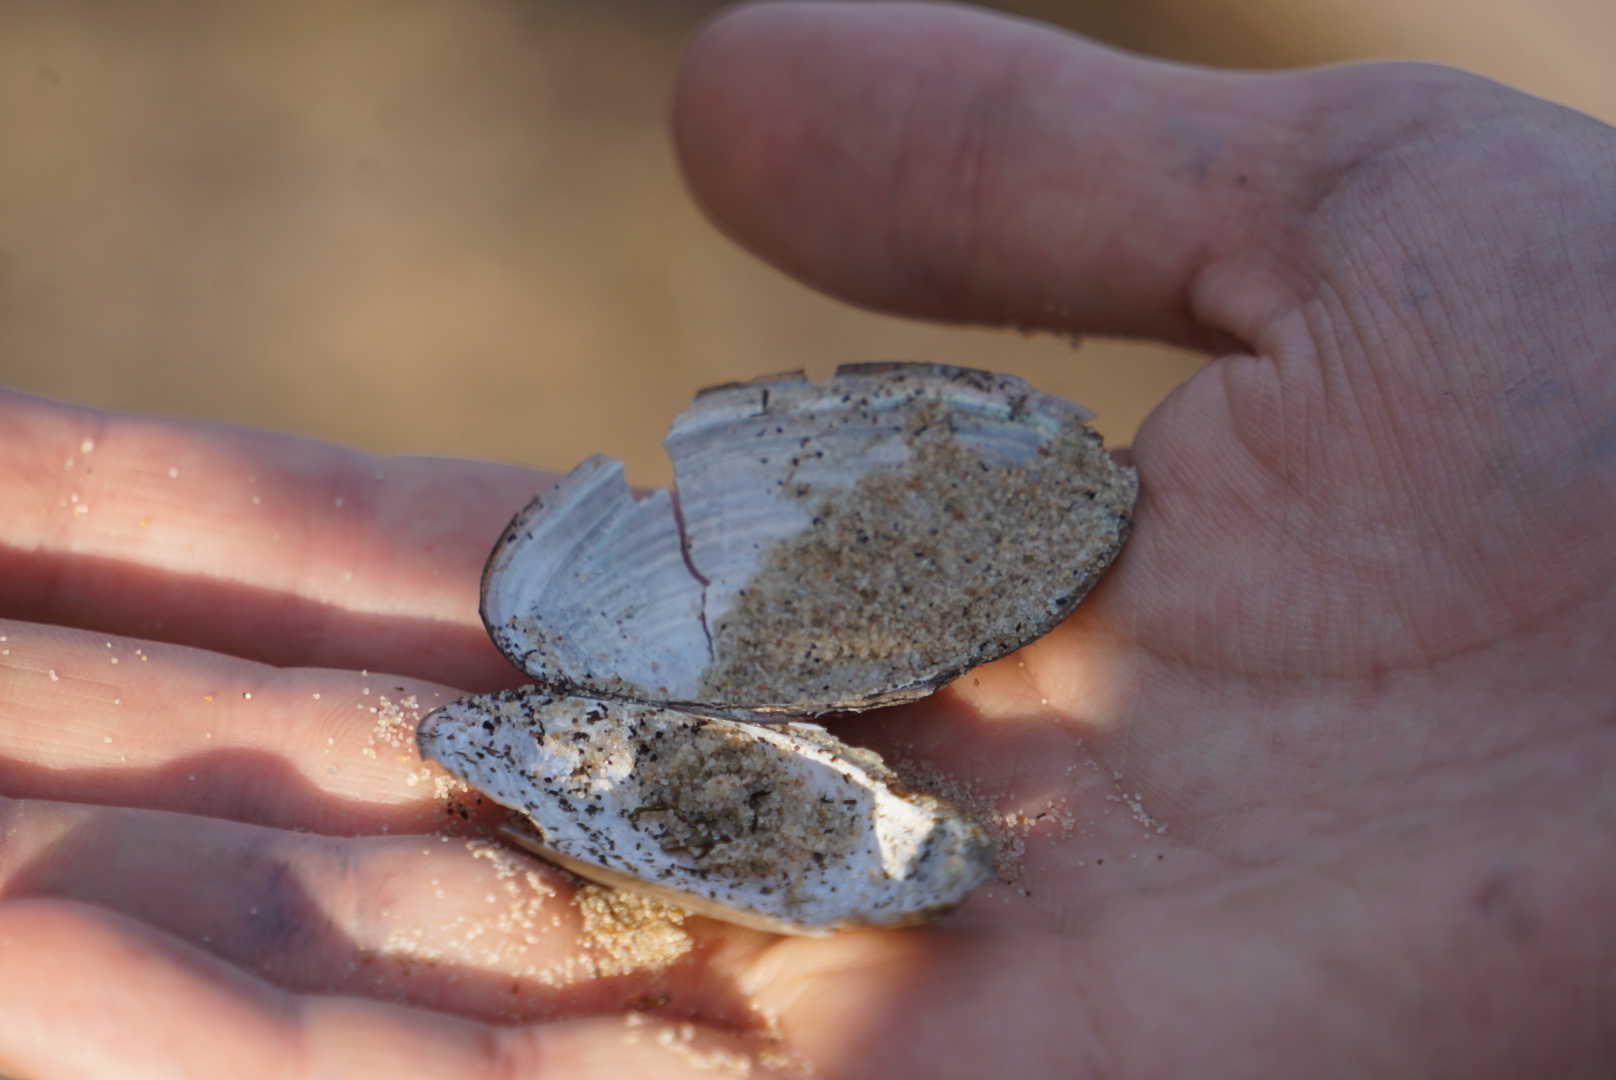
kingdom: Animalia
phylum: Mollusca
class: Bivalvia
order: Unionida
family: Unionidae
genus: Pyganodon
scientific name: Pyganodon grandis
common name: Giant floater
